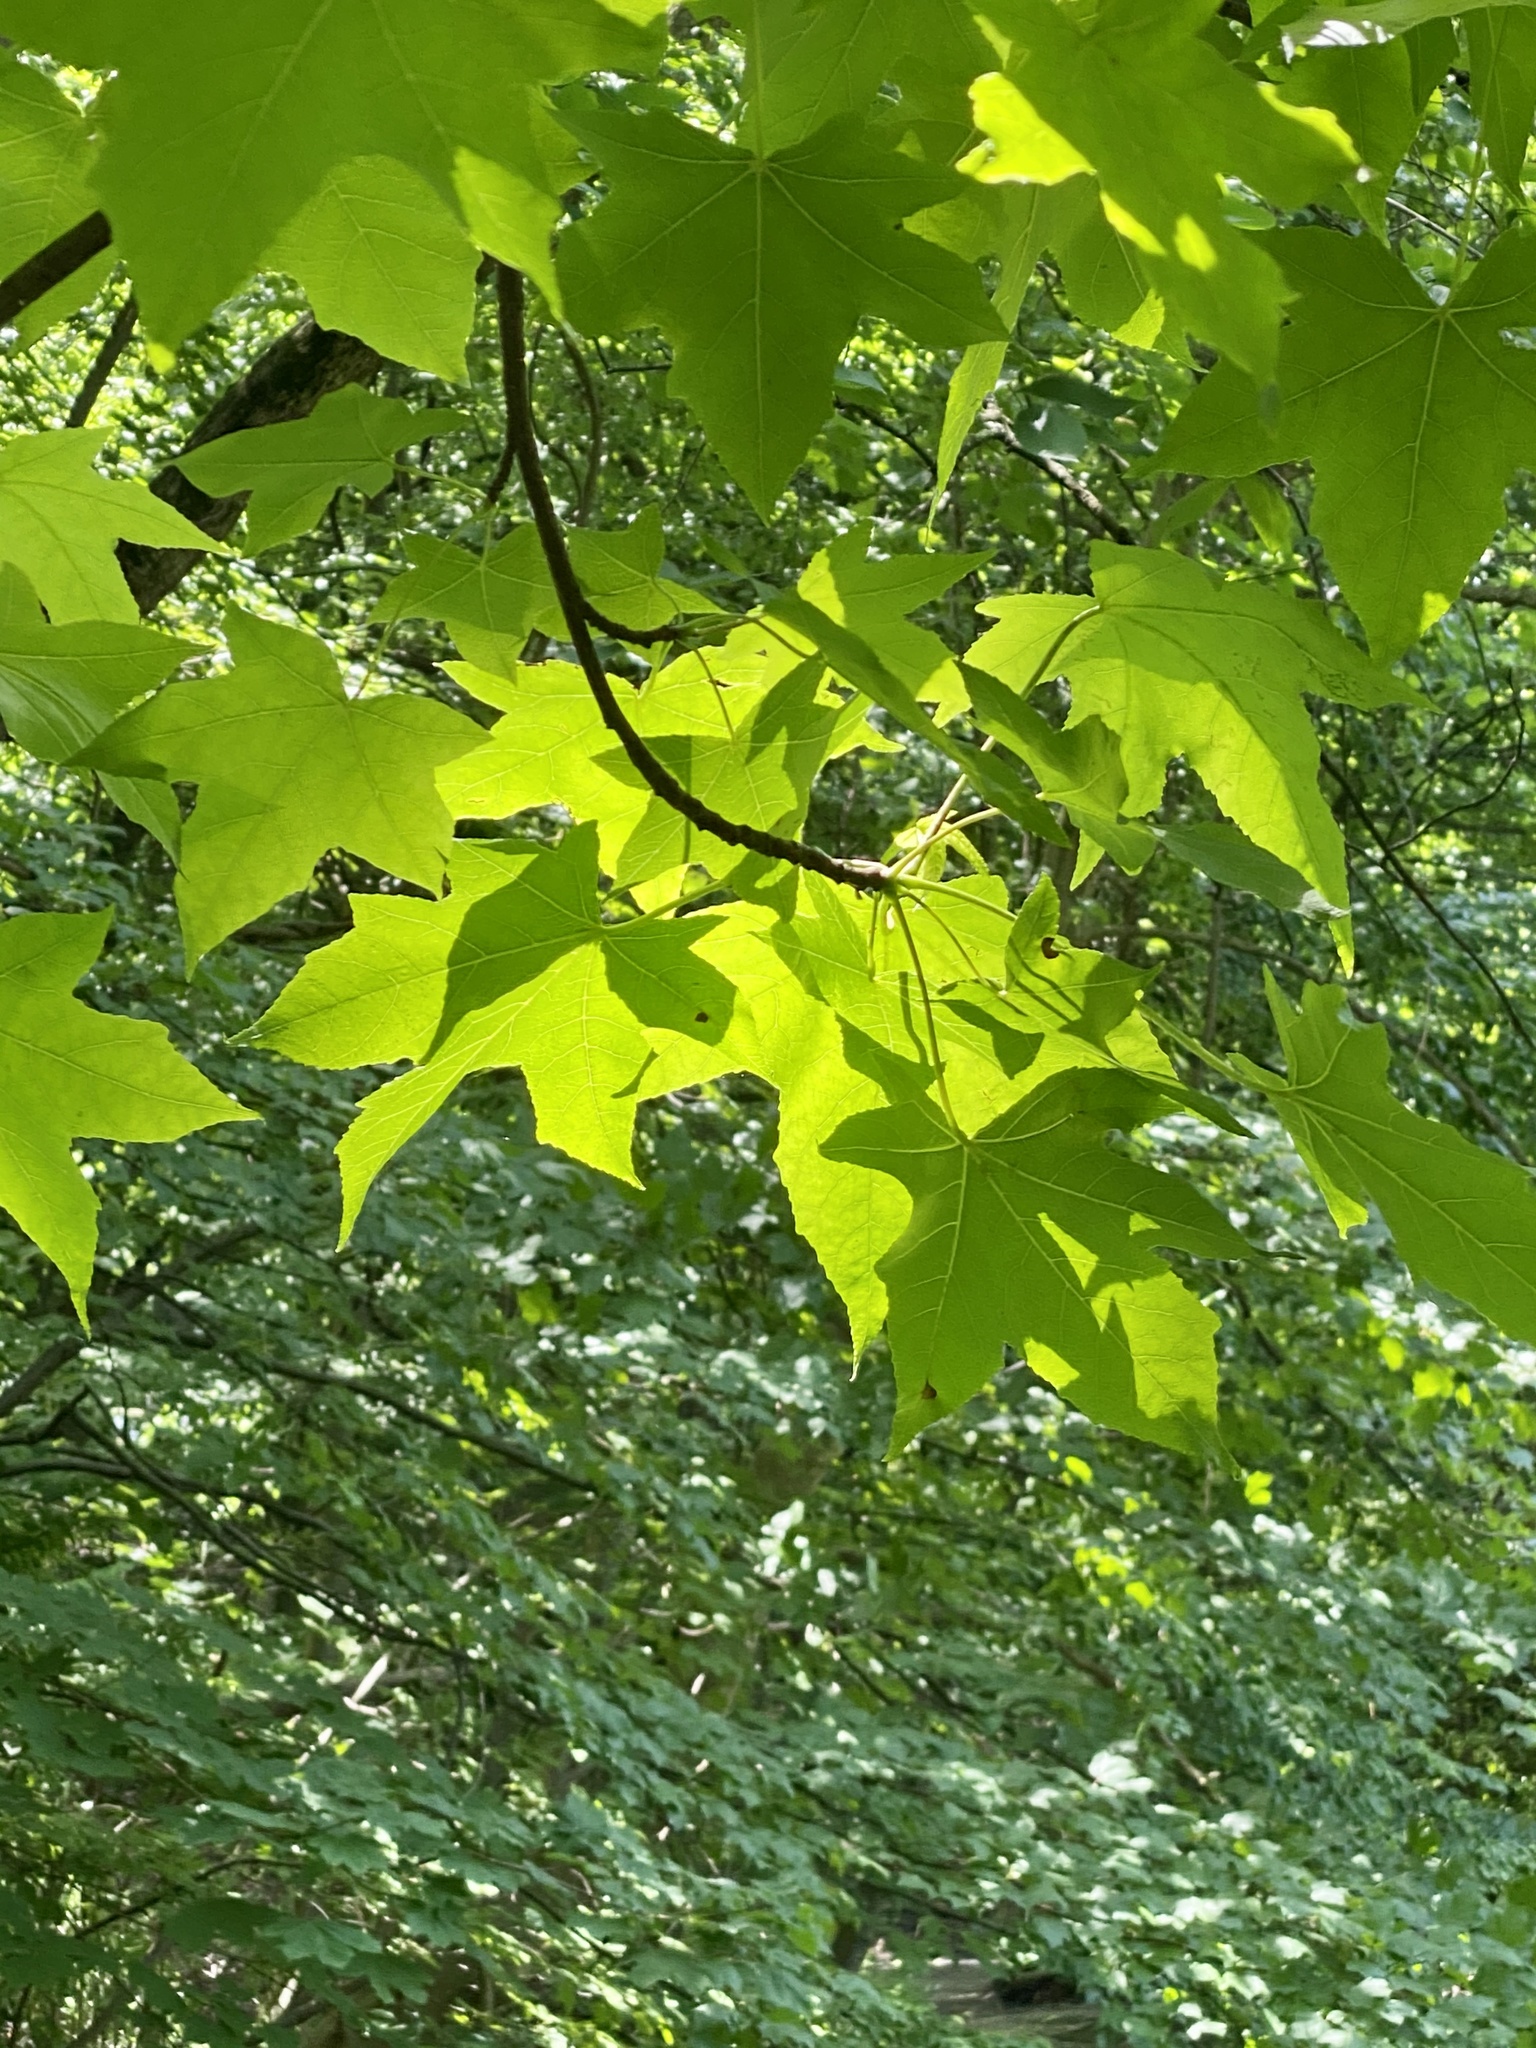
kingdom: Plantae
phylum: Tracheophyta
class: Magnoliopsida
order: Saxifragales
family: Altingiaceae
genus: Liquidambar
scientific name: Liquidambar styraciflua
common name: Sweet gum
